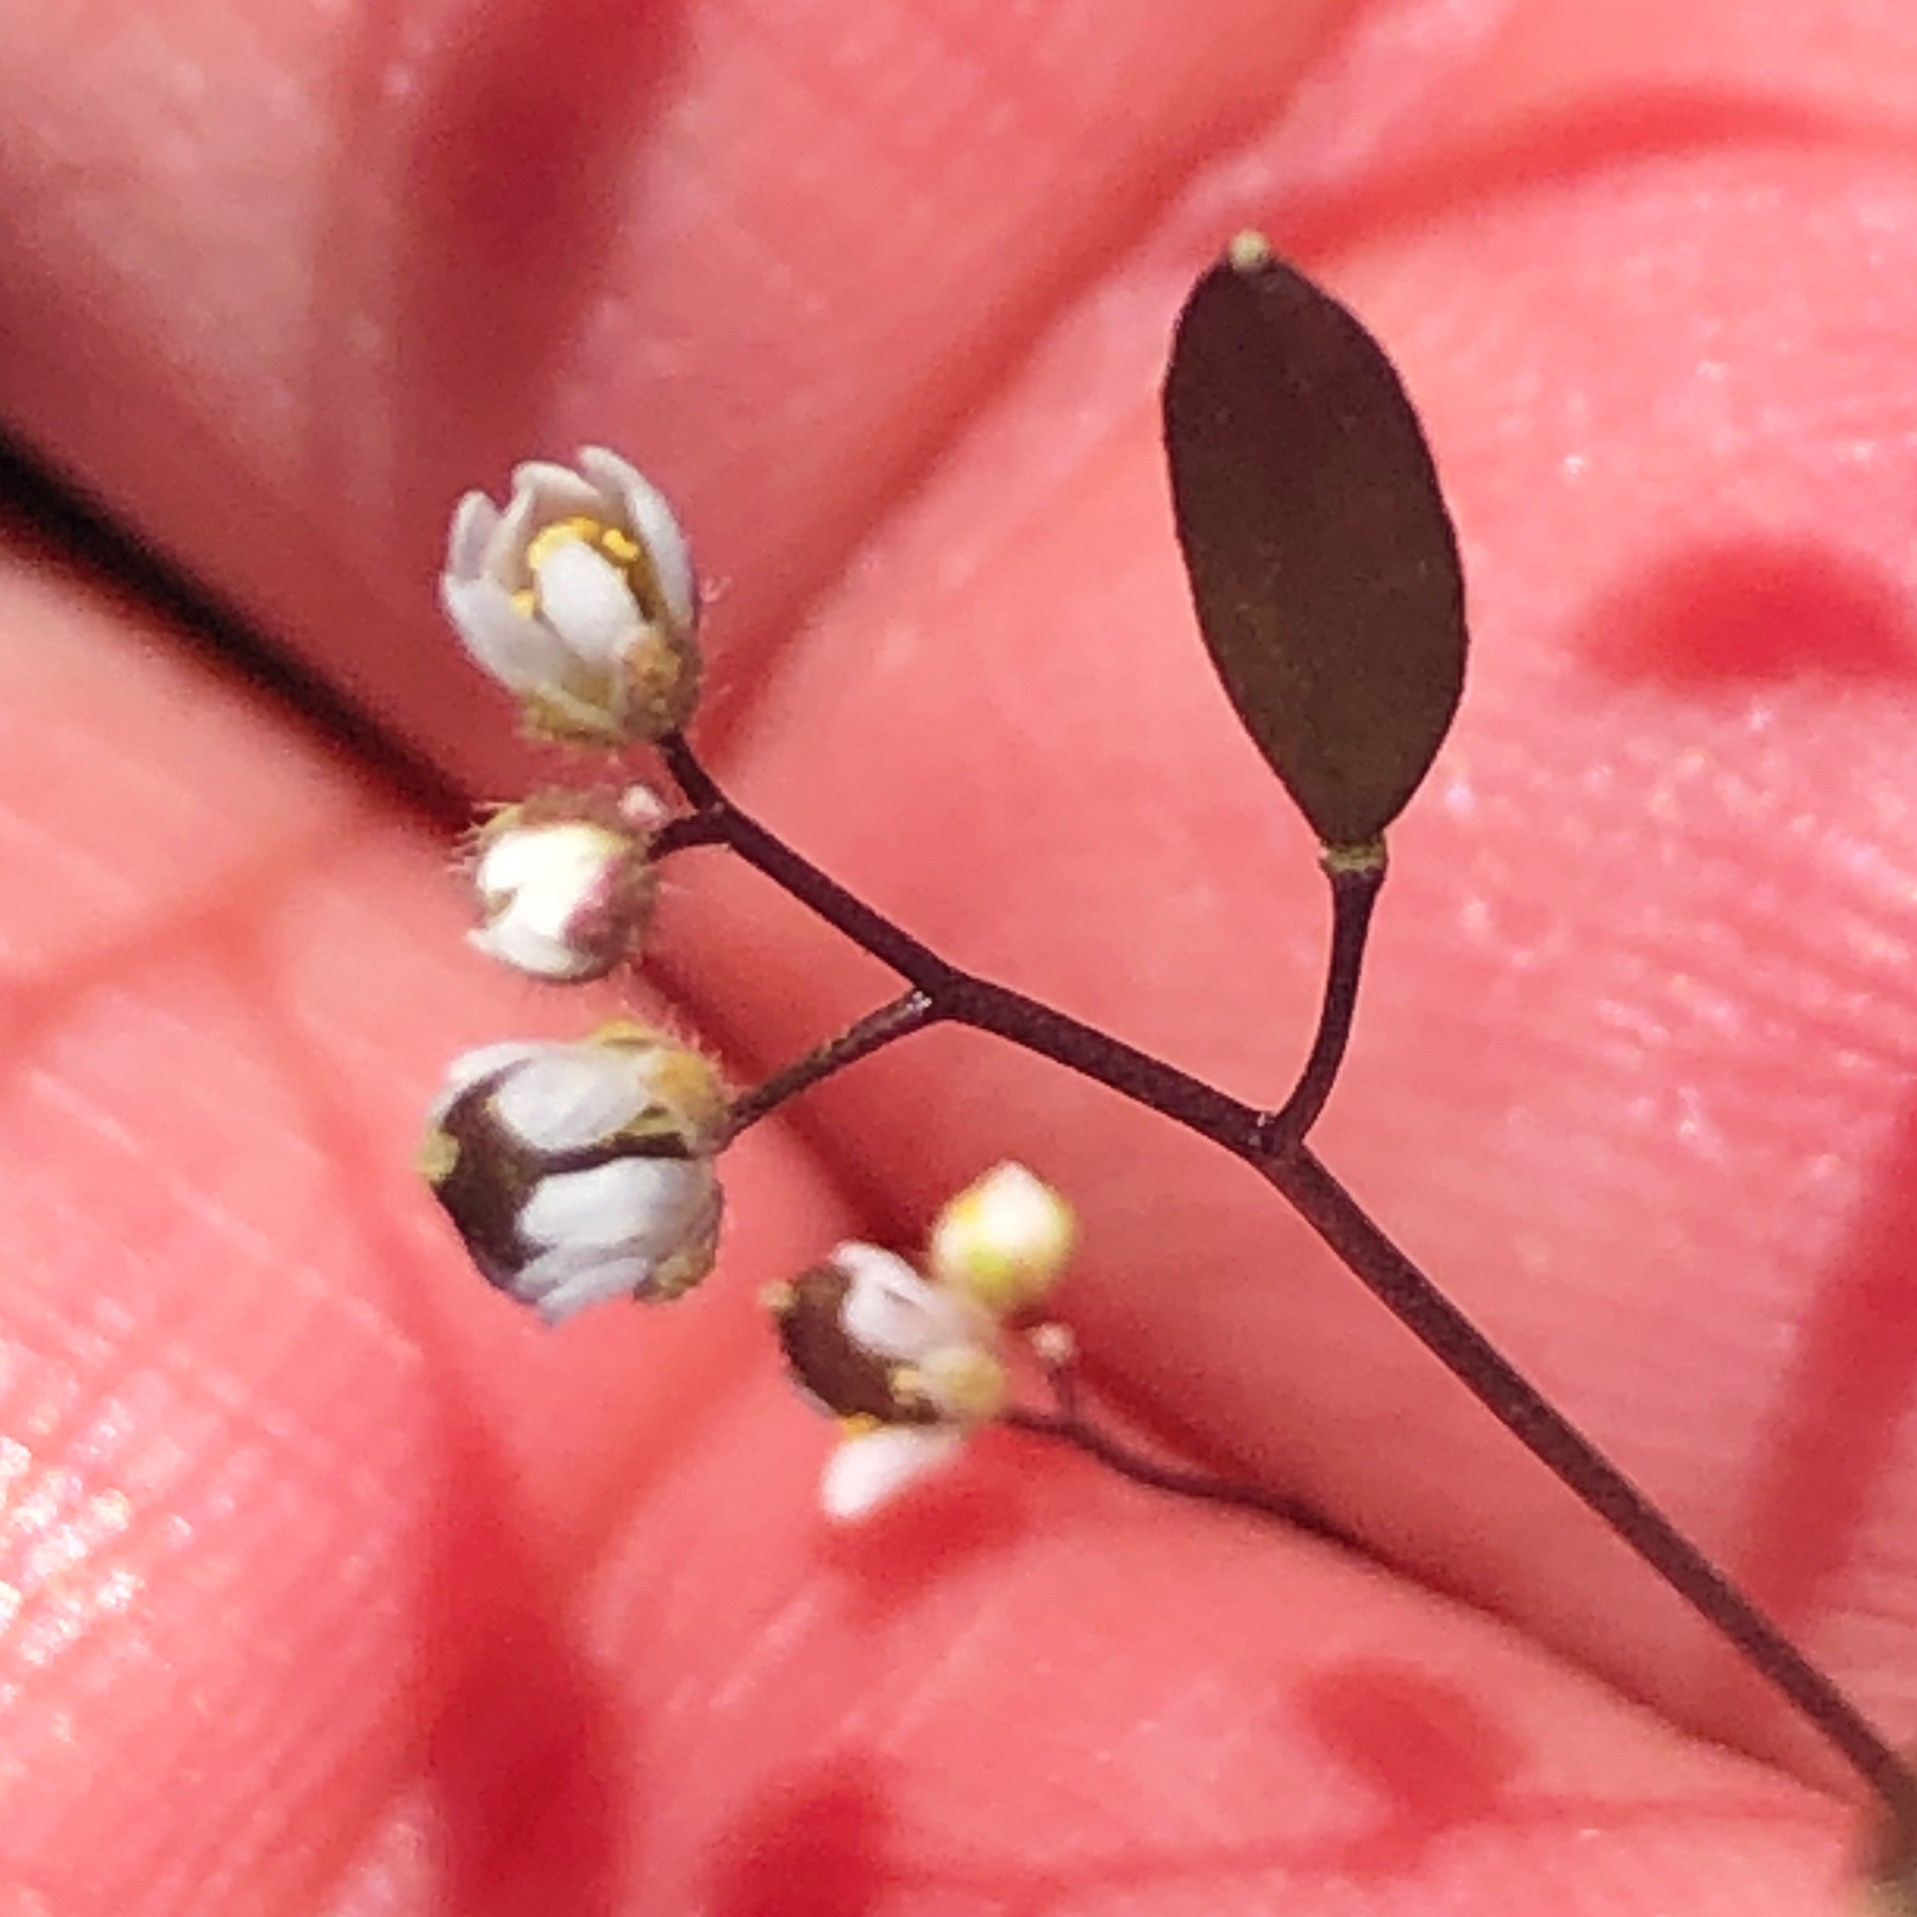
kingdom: Plantae
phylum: Tracheophyta
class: Magnoliopsida
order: Brassicales
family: Brassicaceae
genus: Draba
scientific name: Draba verna
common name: Spring draba
